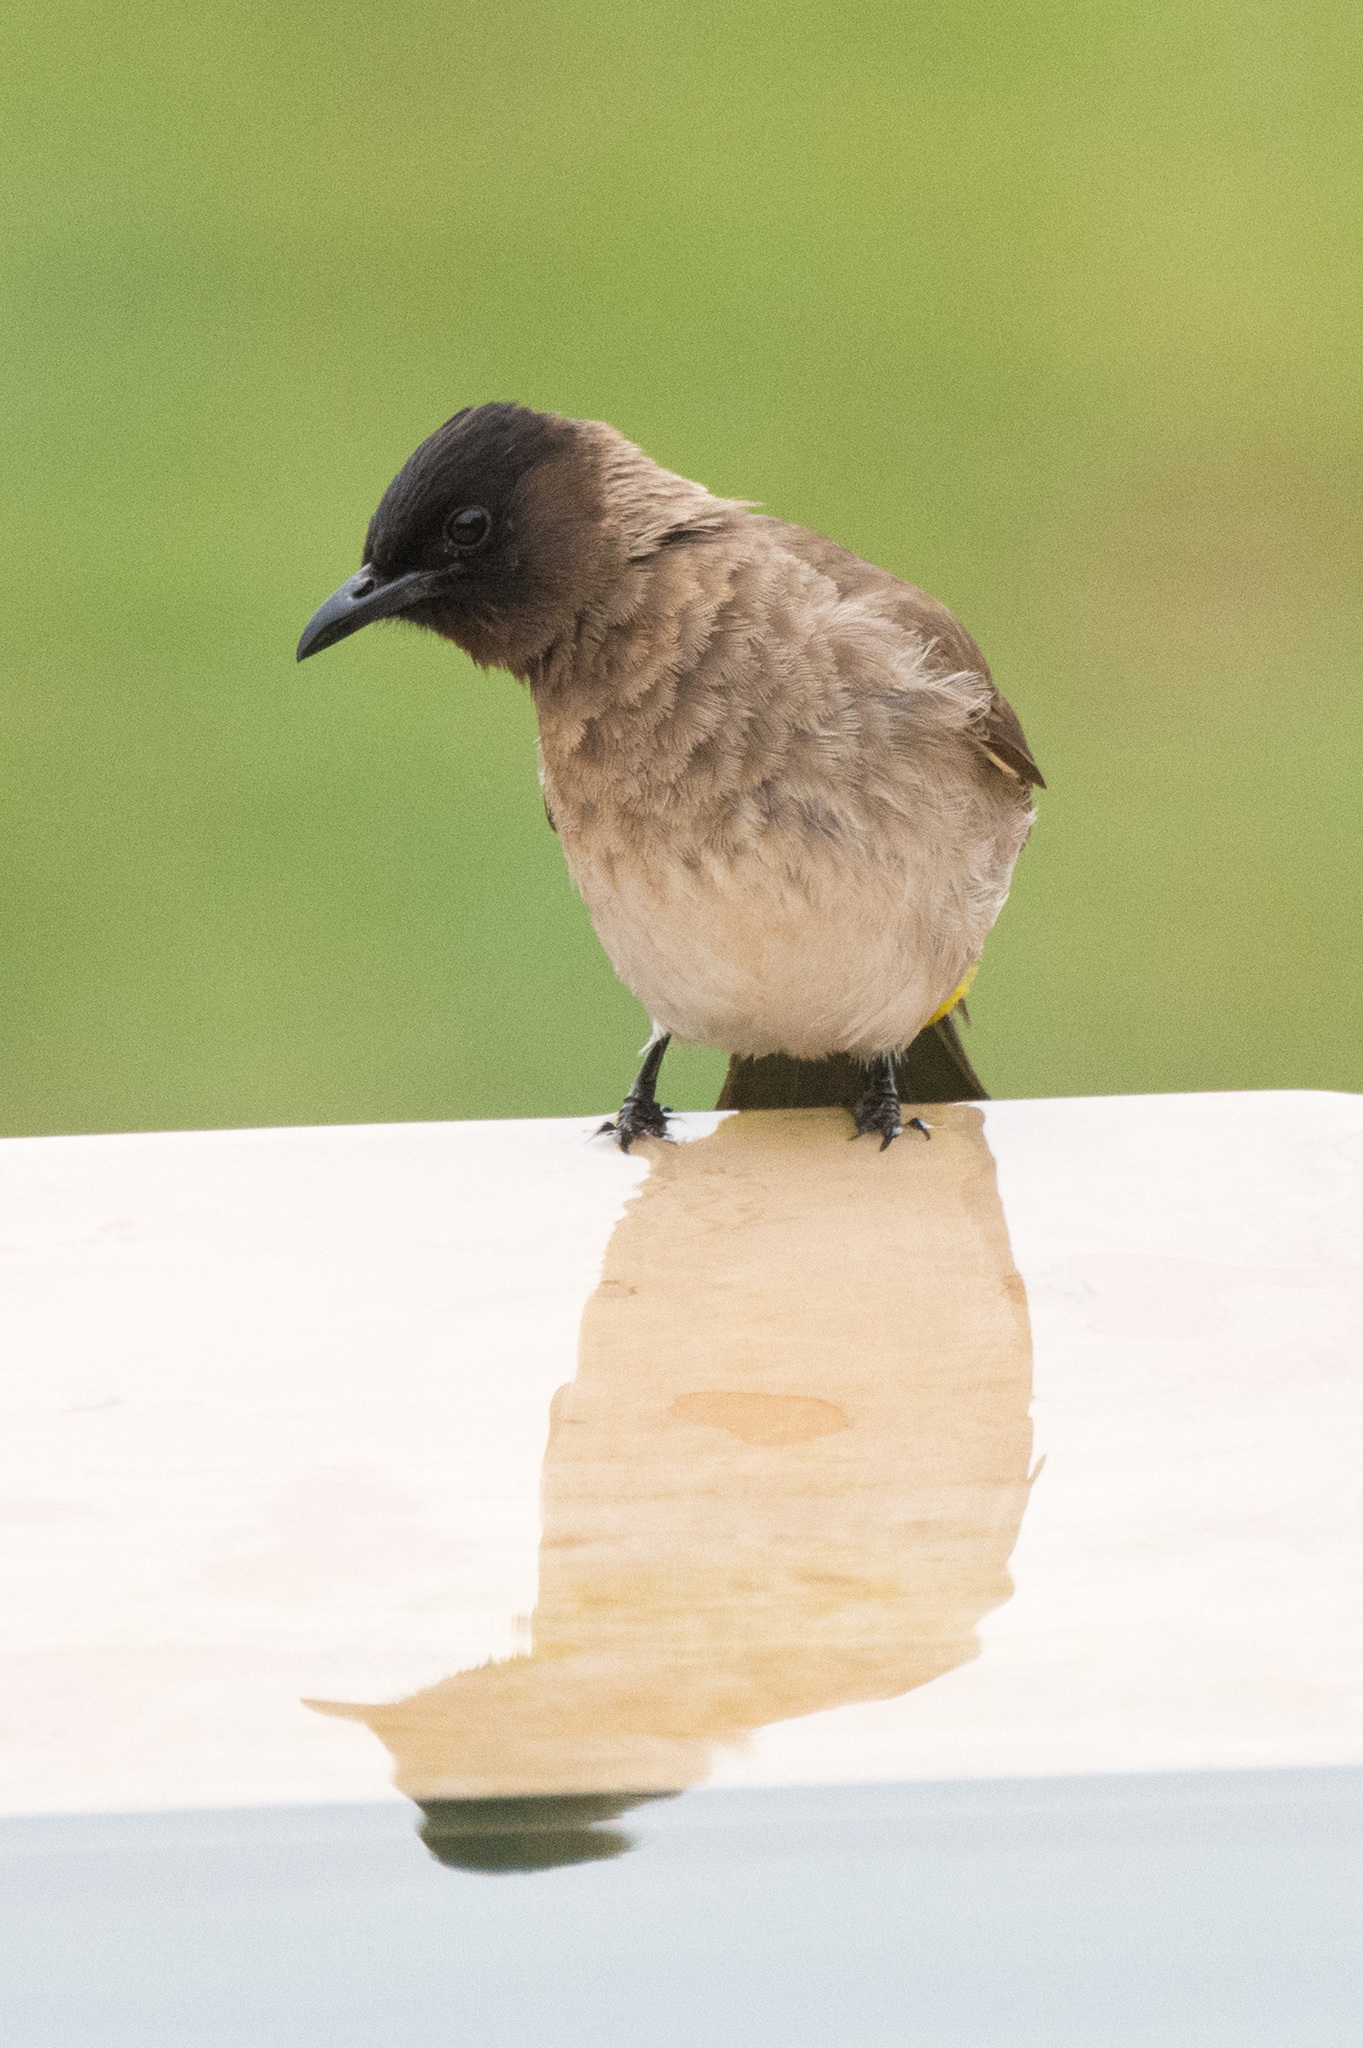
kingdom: Animalia
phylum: Chordata
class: Aves
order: Passeriformes
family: Pycnonotidae
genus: Pycnonotus
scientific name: Pycnonotus barbatus
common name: Common bulbul
